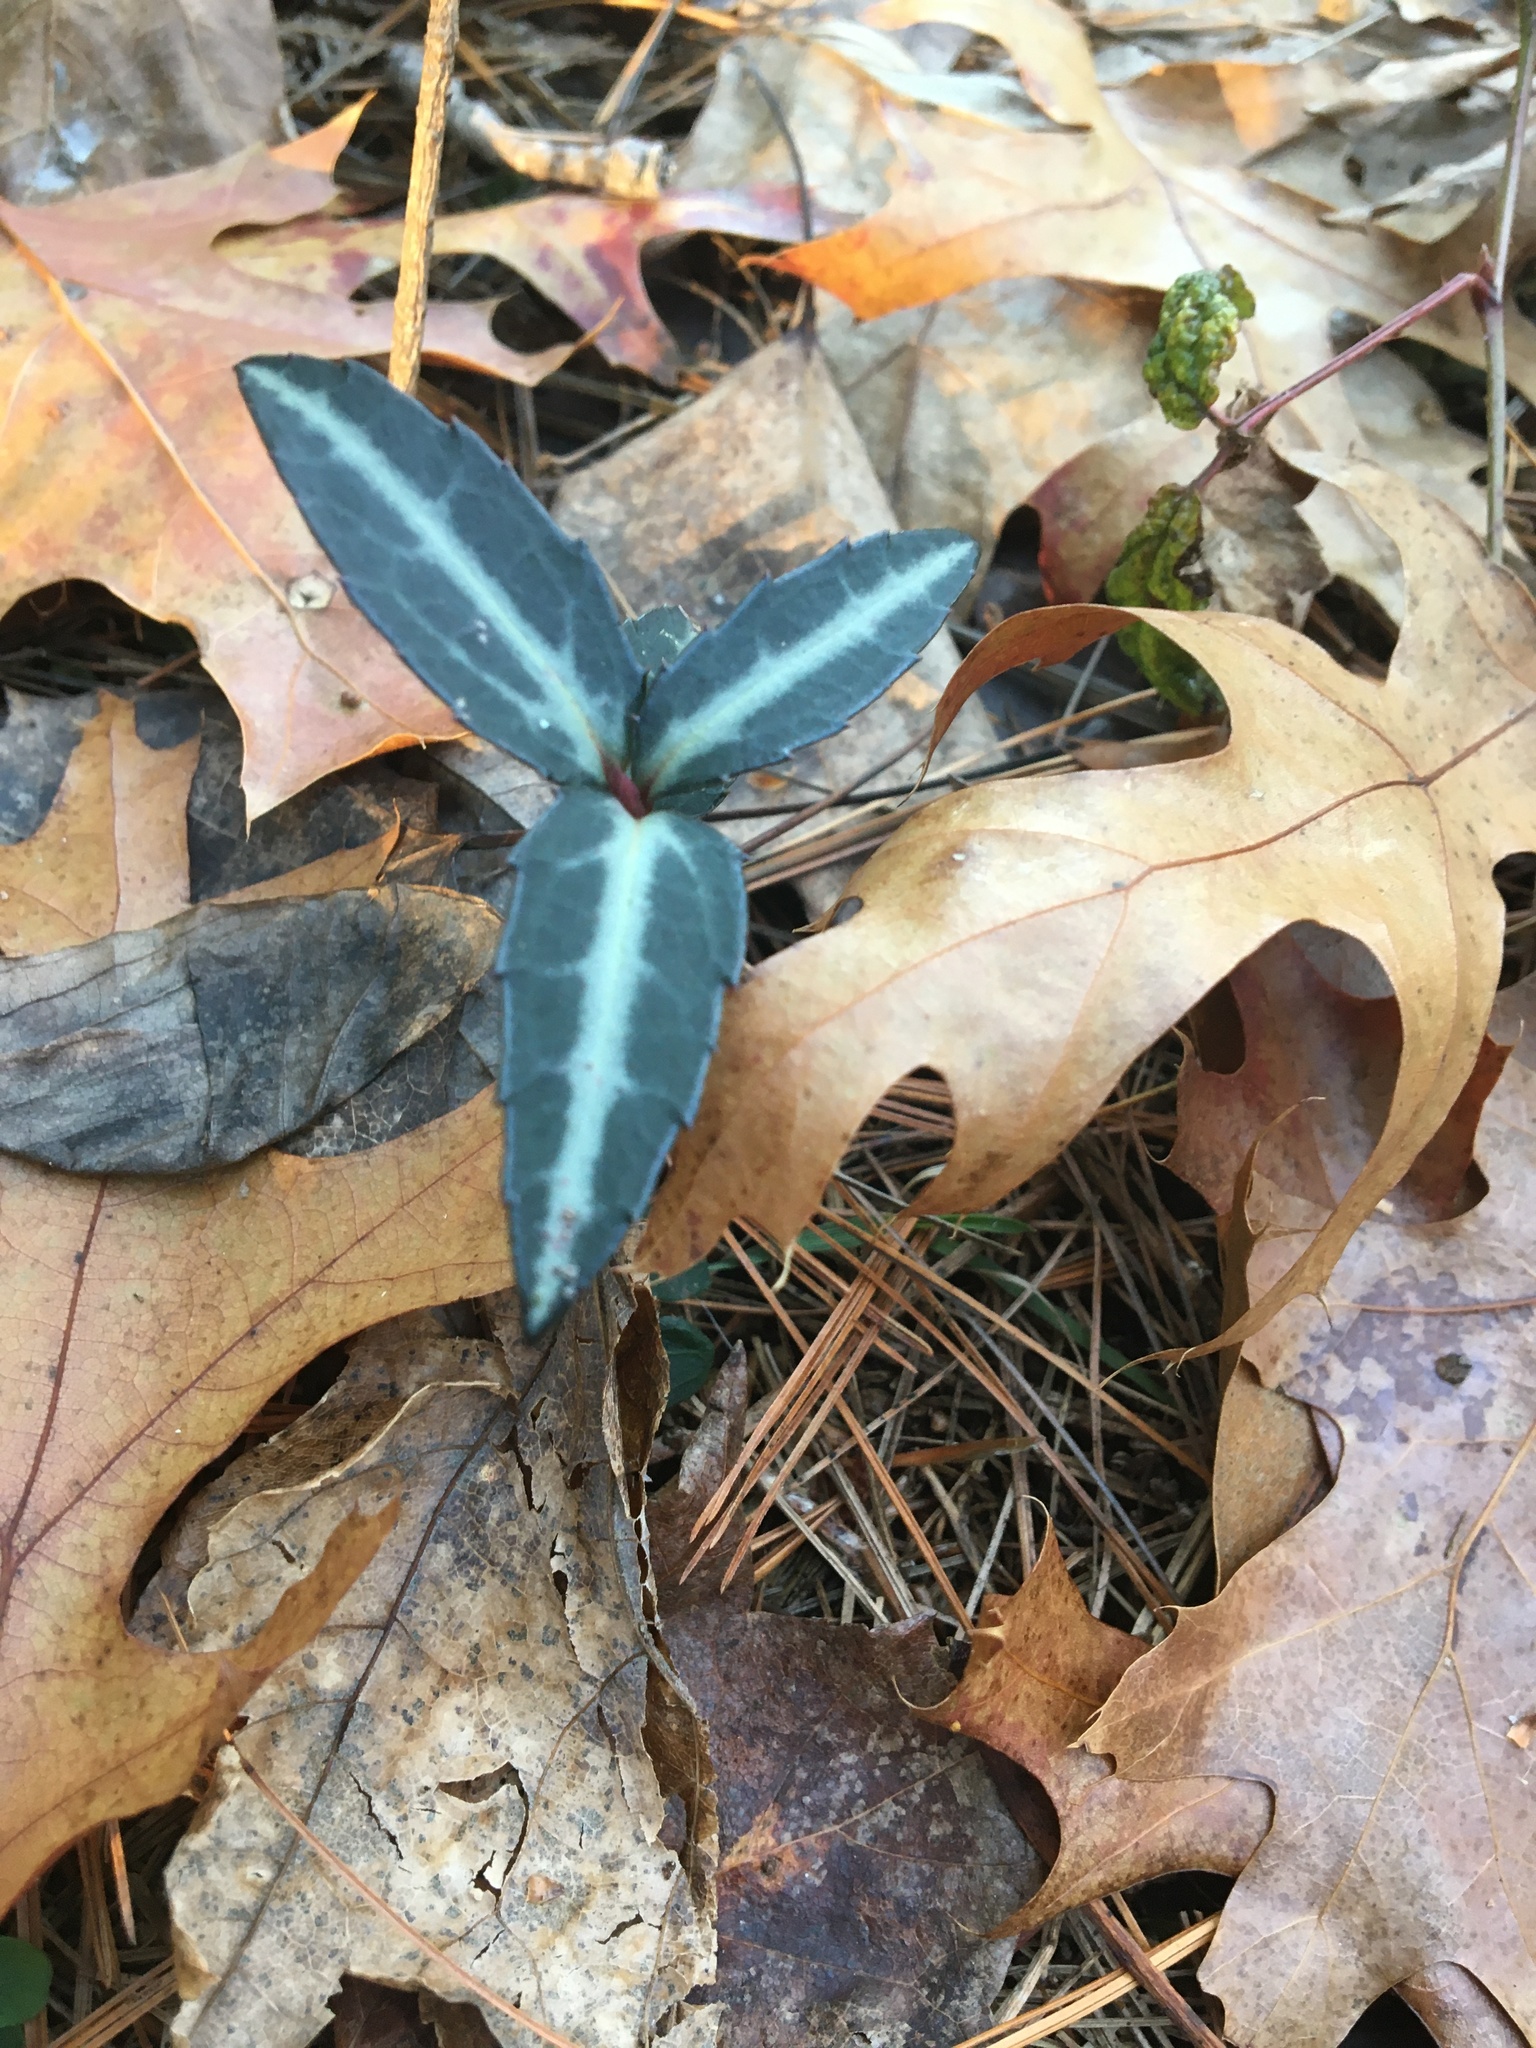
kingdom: Plantae
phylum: Tracheophyta
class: Magnoliopsida
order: Ericales
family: Ericaceae
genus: Chimaphila
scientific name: Chimaphila maculata
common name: Spotted pipsissewa
